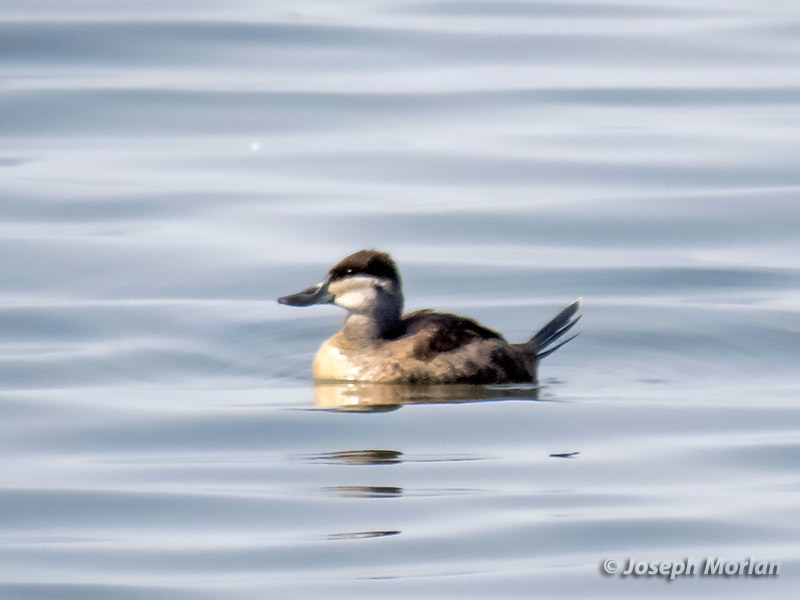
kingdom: Animalia
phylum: Chordata
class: Aves
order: Anseriformes
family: Anatidae
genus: Oxyura
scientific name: Oxyura jamaicensis
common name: Ruddy duck
